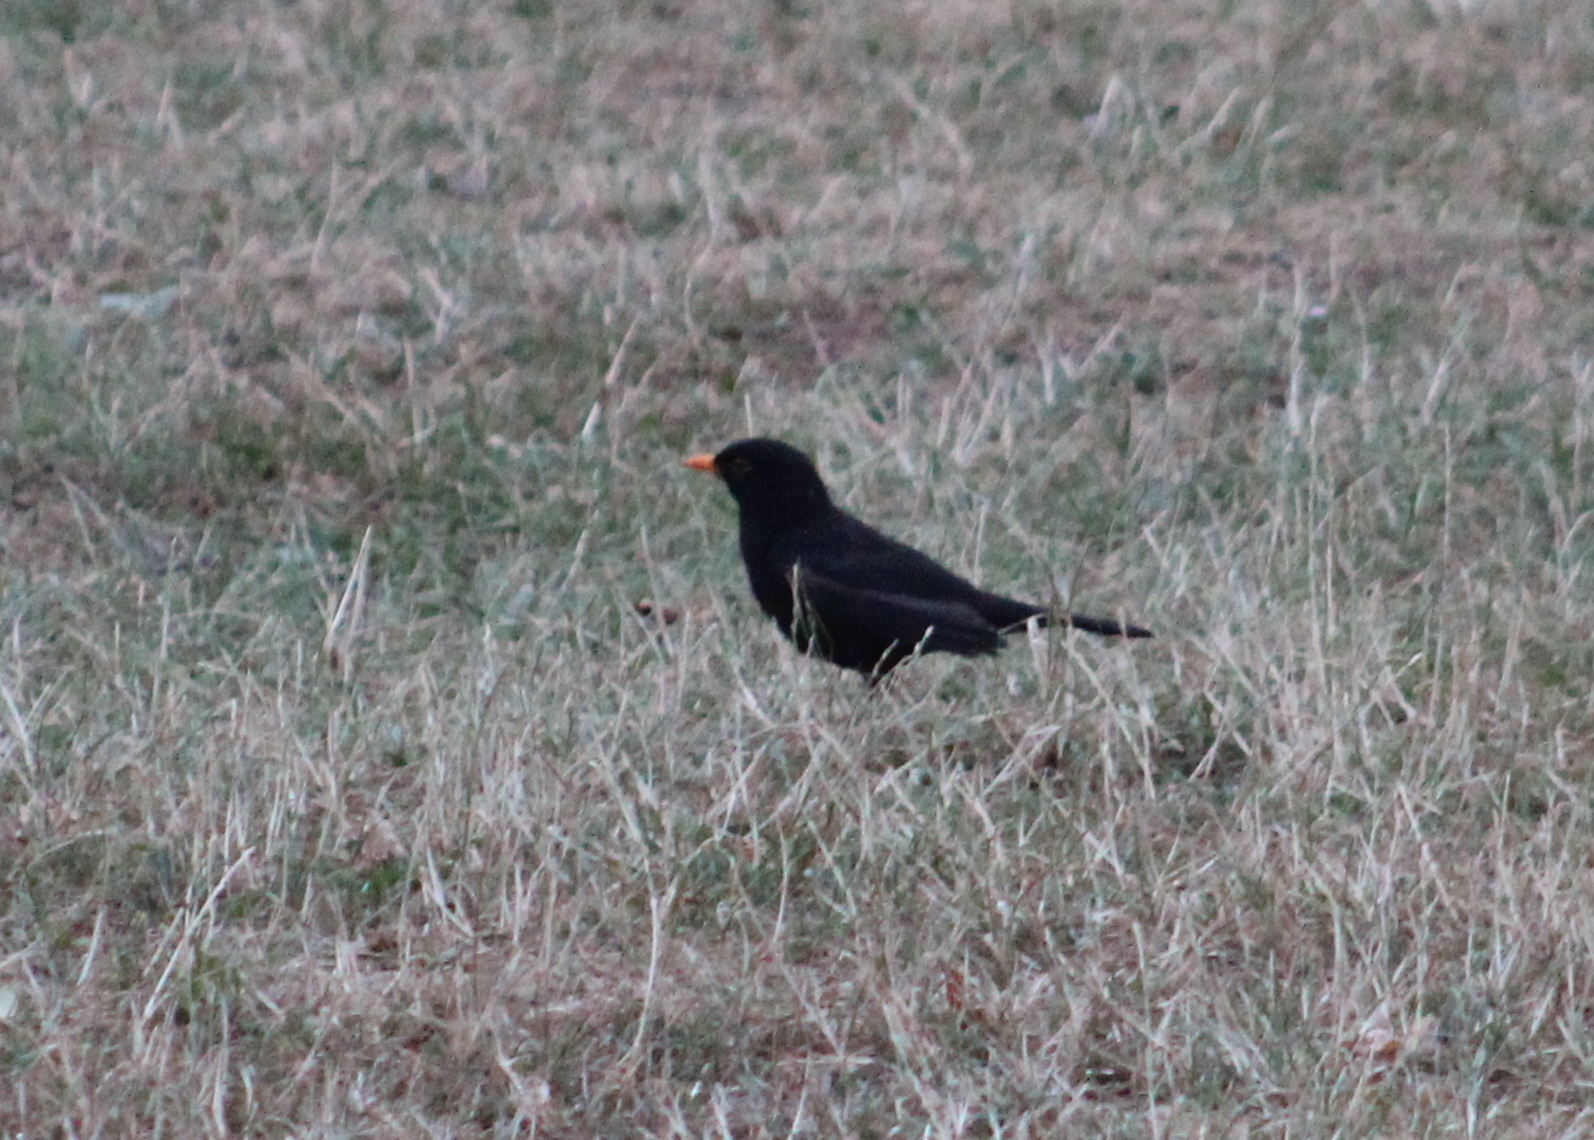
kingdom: Animalia
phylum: Chordata
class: Aves
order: Passeriformes
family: Turdidae
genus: Turdus
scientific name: Turdus merula
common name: Common blackbird
